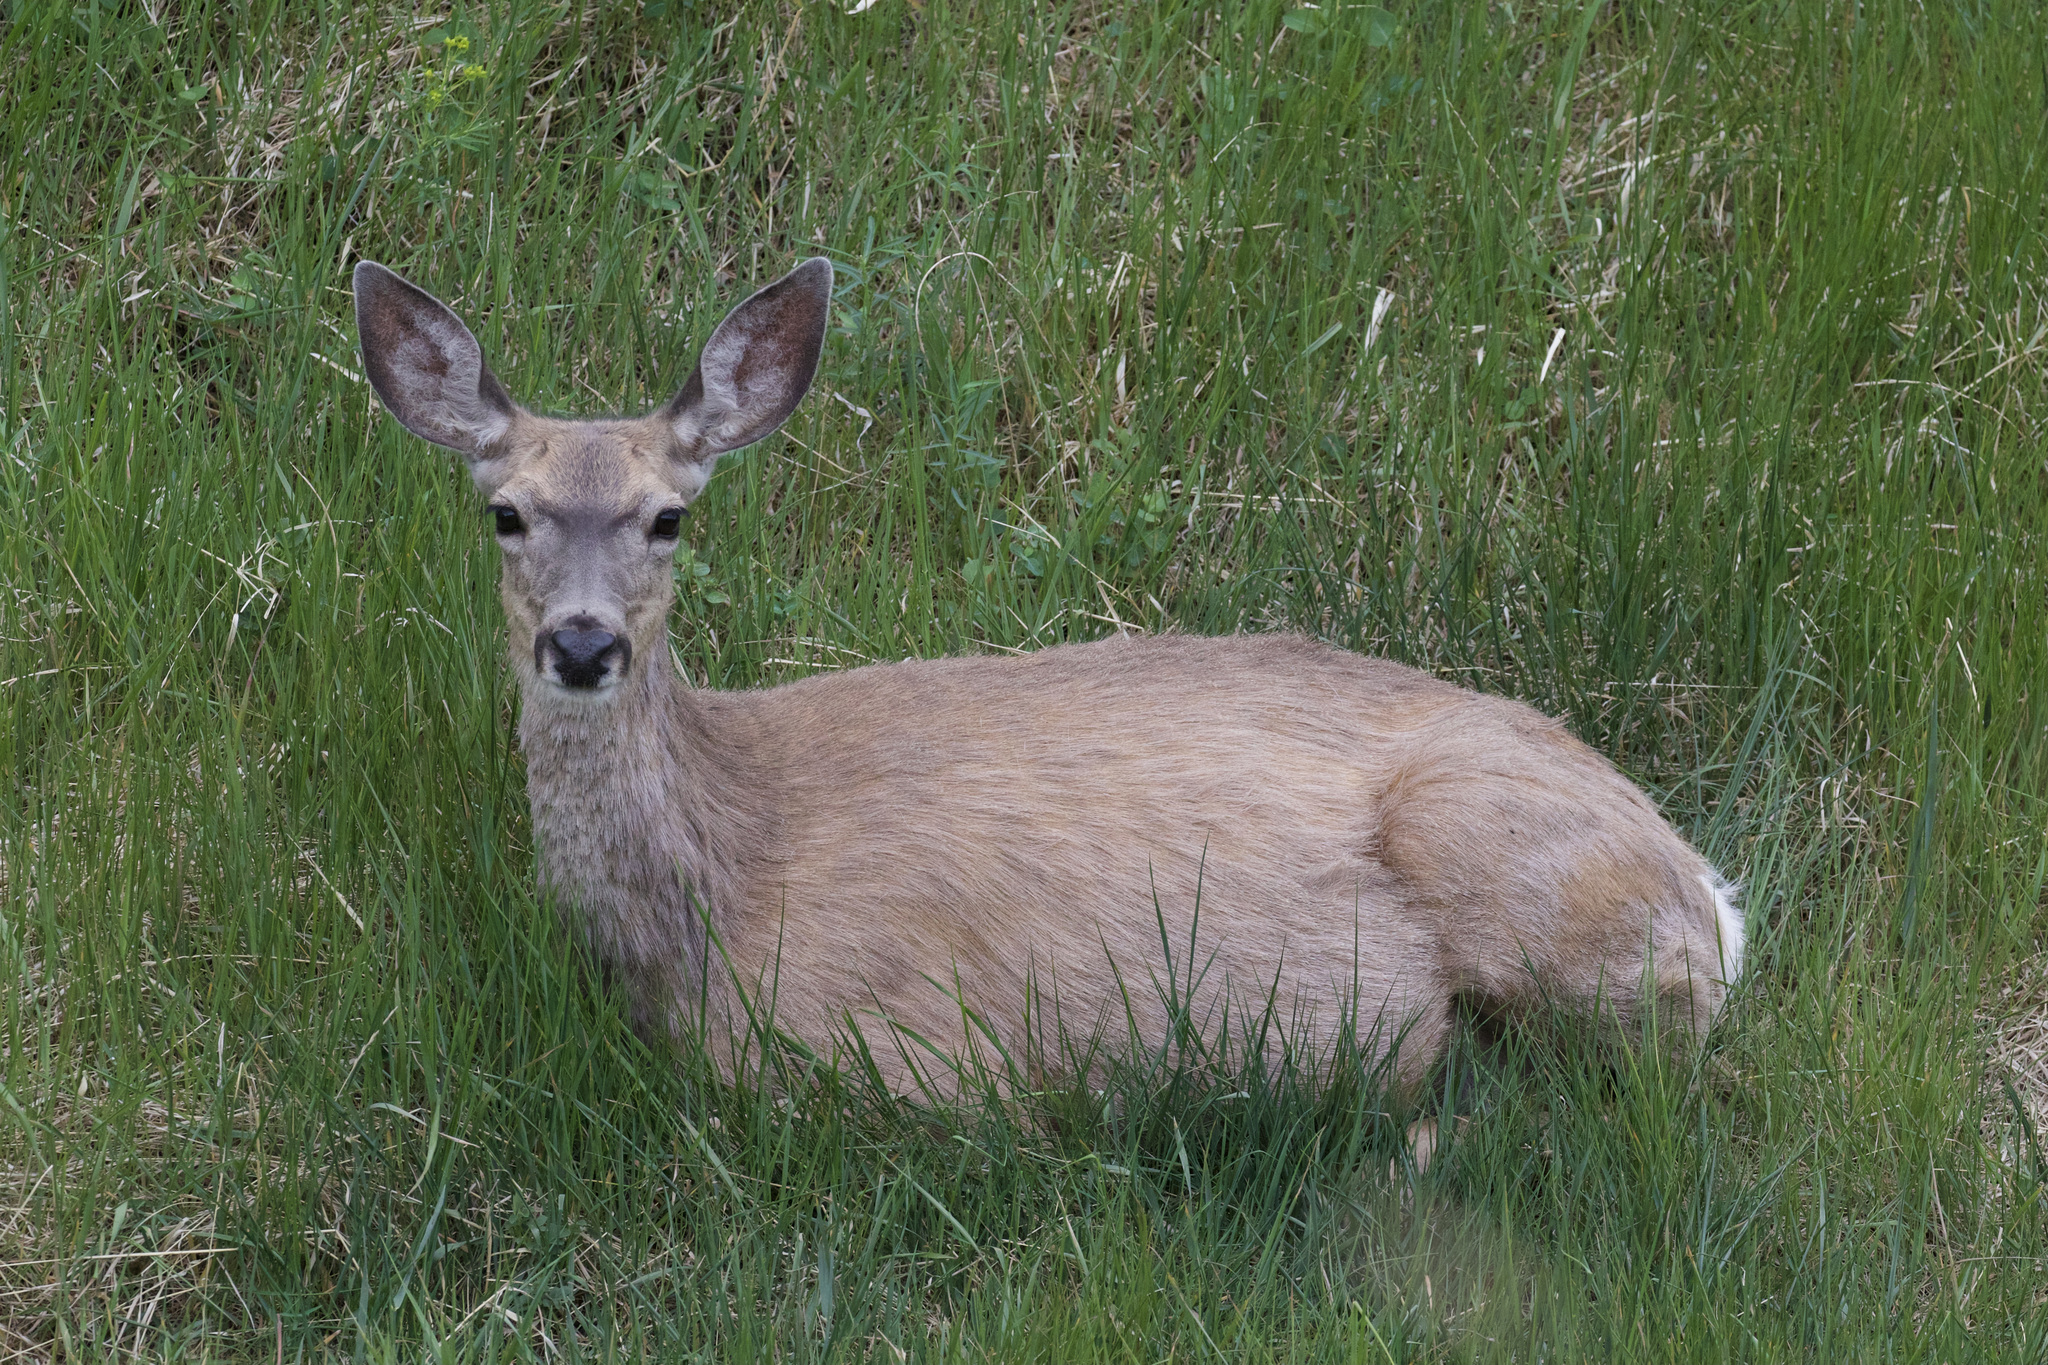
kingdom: Animalia
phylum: Chordata
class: Mammalia
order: Artiodactyla
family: Cervidae
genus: Odocoileus
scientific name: Odocoileus hemionus
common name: Mule deer
